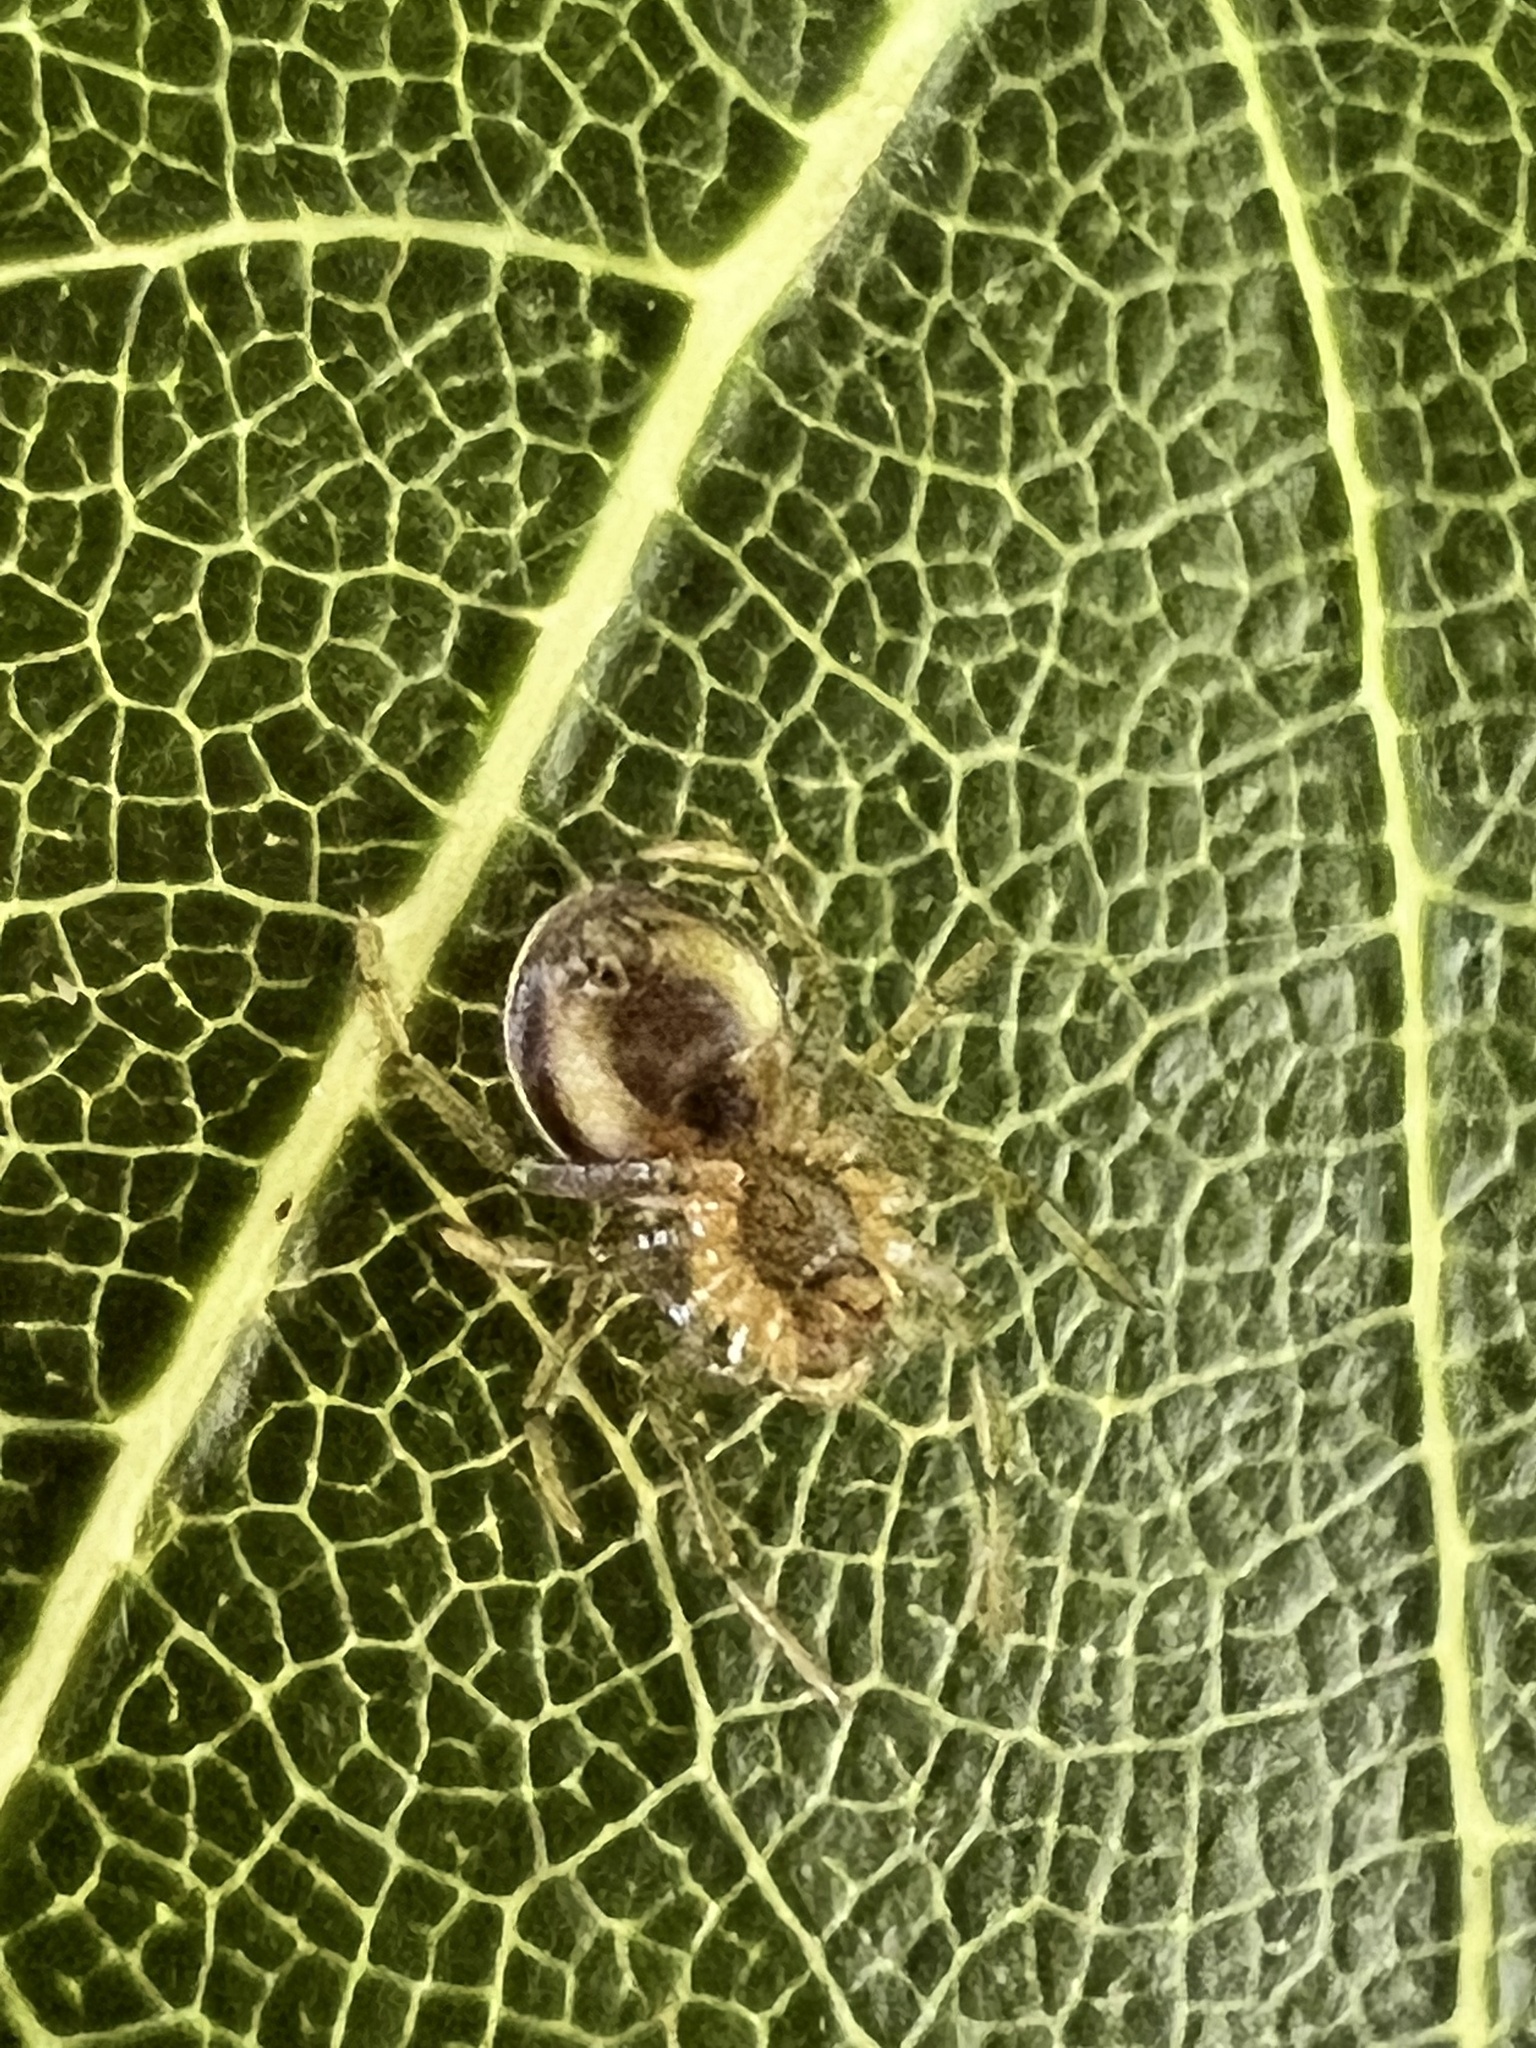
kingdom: Animalia
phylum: Arthropoda
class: Arachnida
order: Araneae
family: Araneidae
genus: Araniella
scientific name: Araniella displicata
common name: Sixspotted orb weaver
